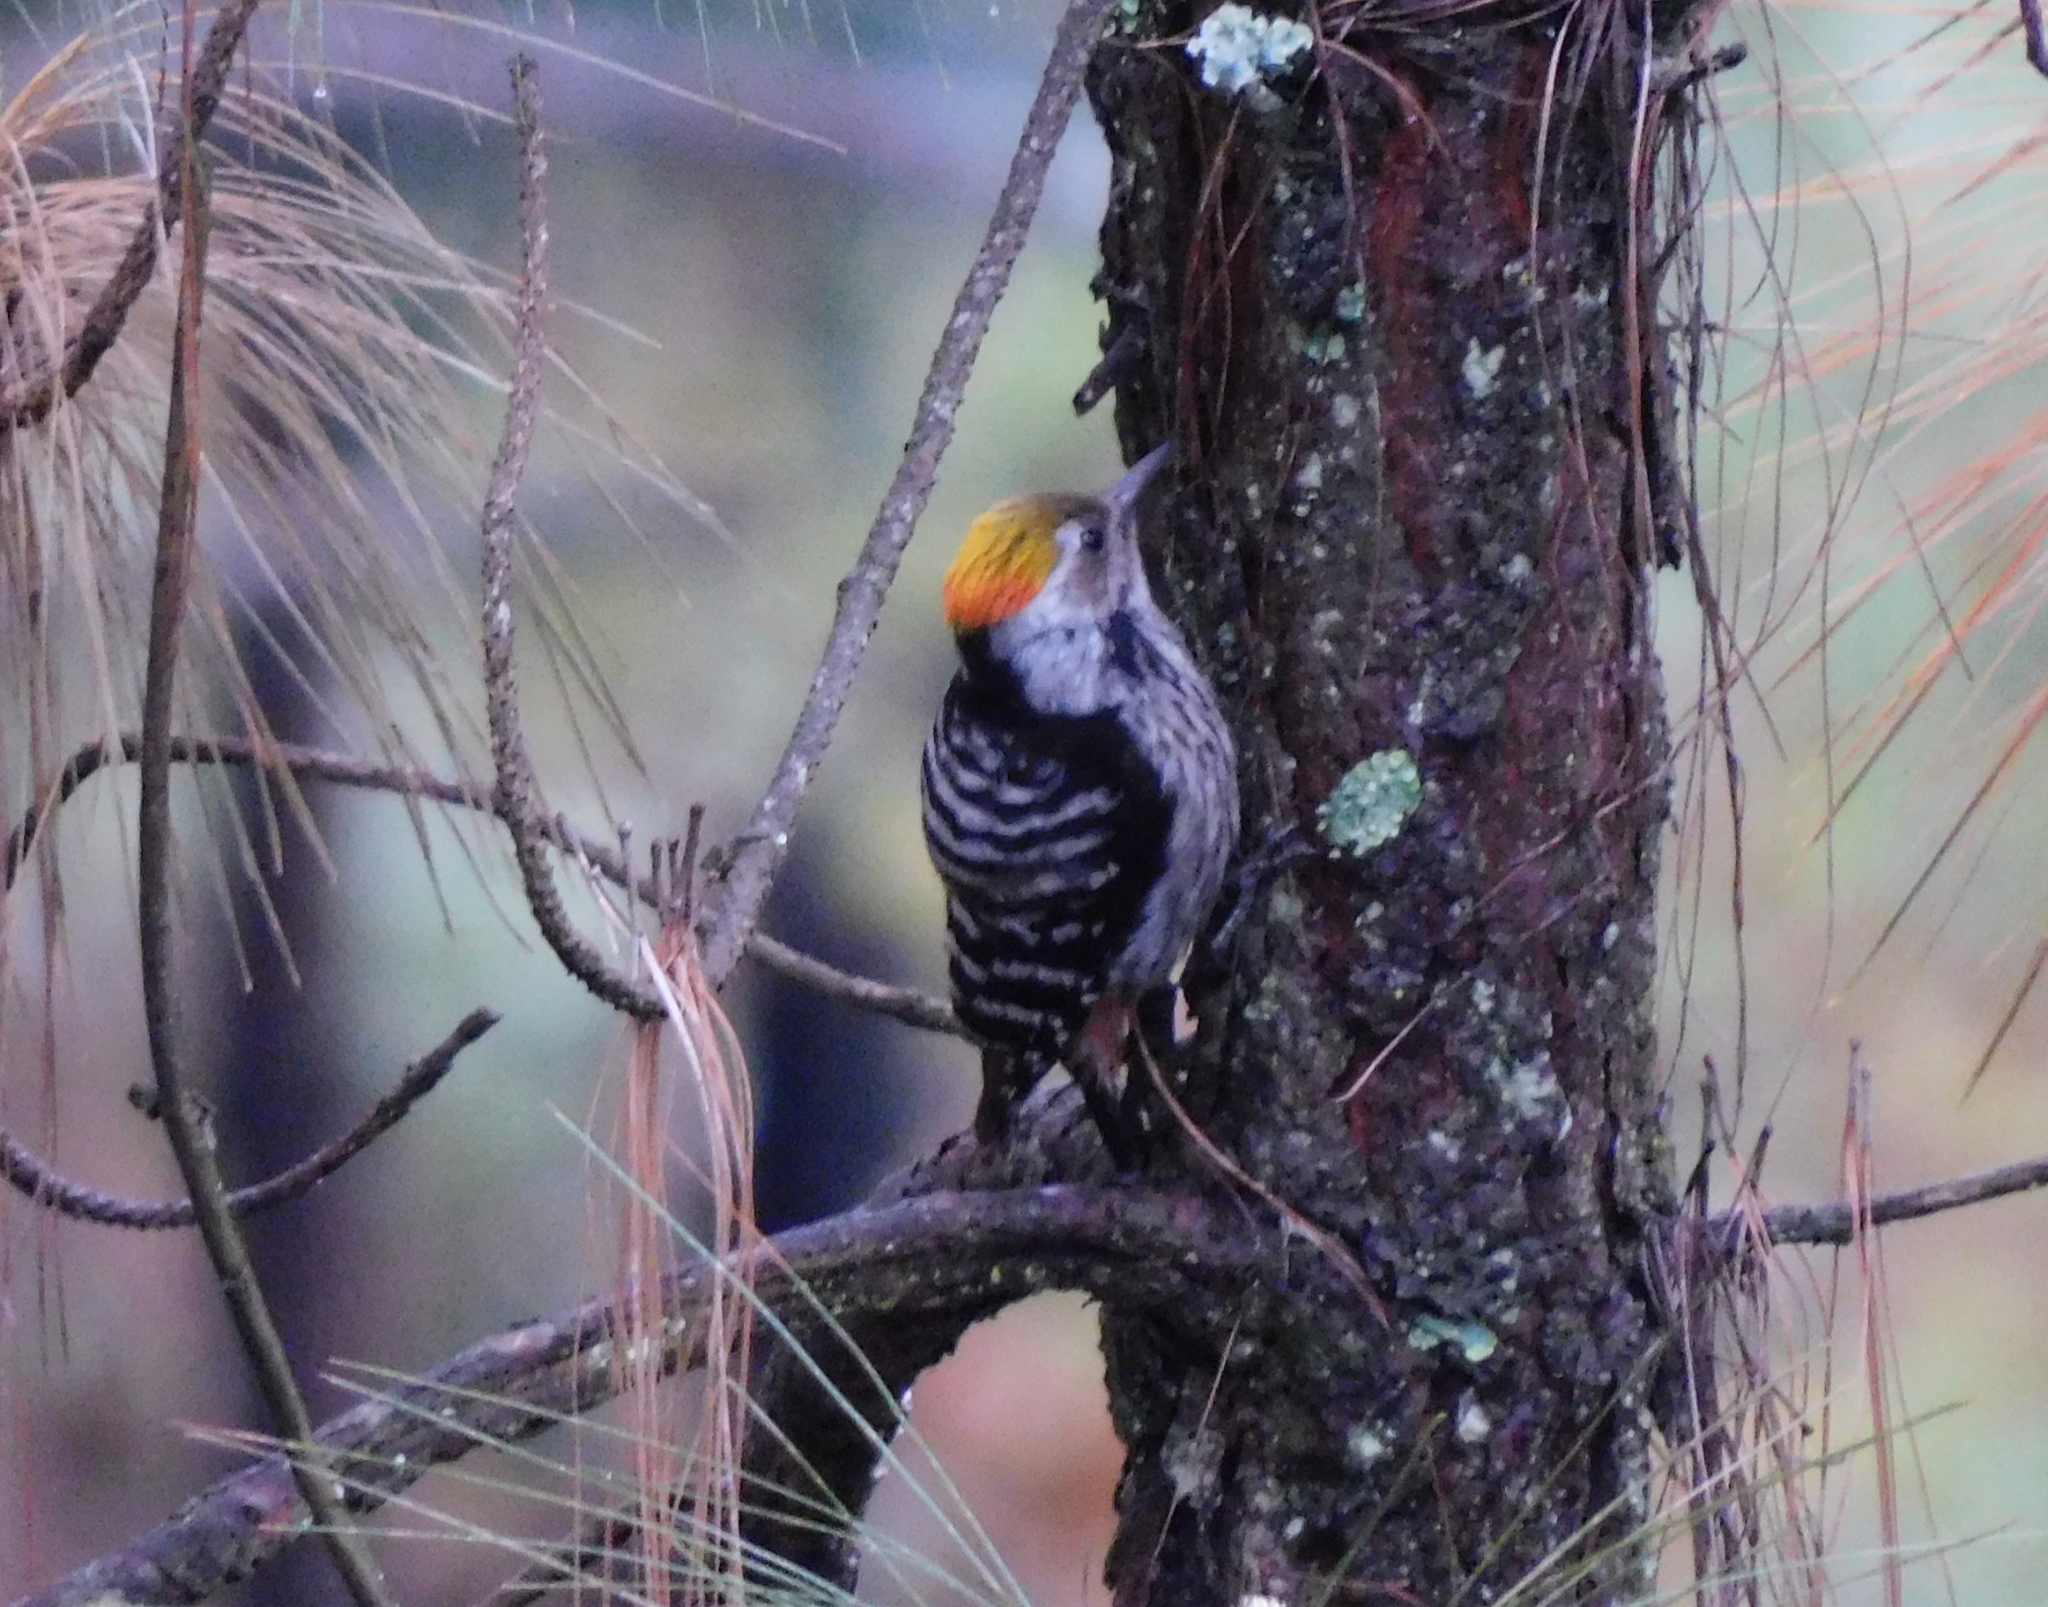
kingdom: Animalia
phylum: Chordata
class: Aves
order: Piciformes
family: Picidae
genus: Dendrocoptes
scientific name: Dendrocoptes auriceps
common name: Brown-fronted woodpecker
